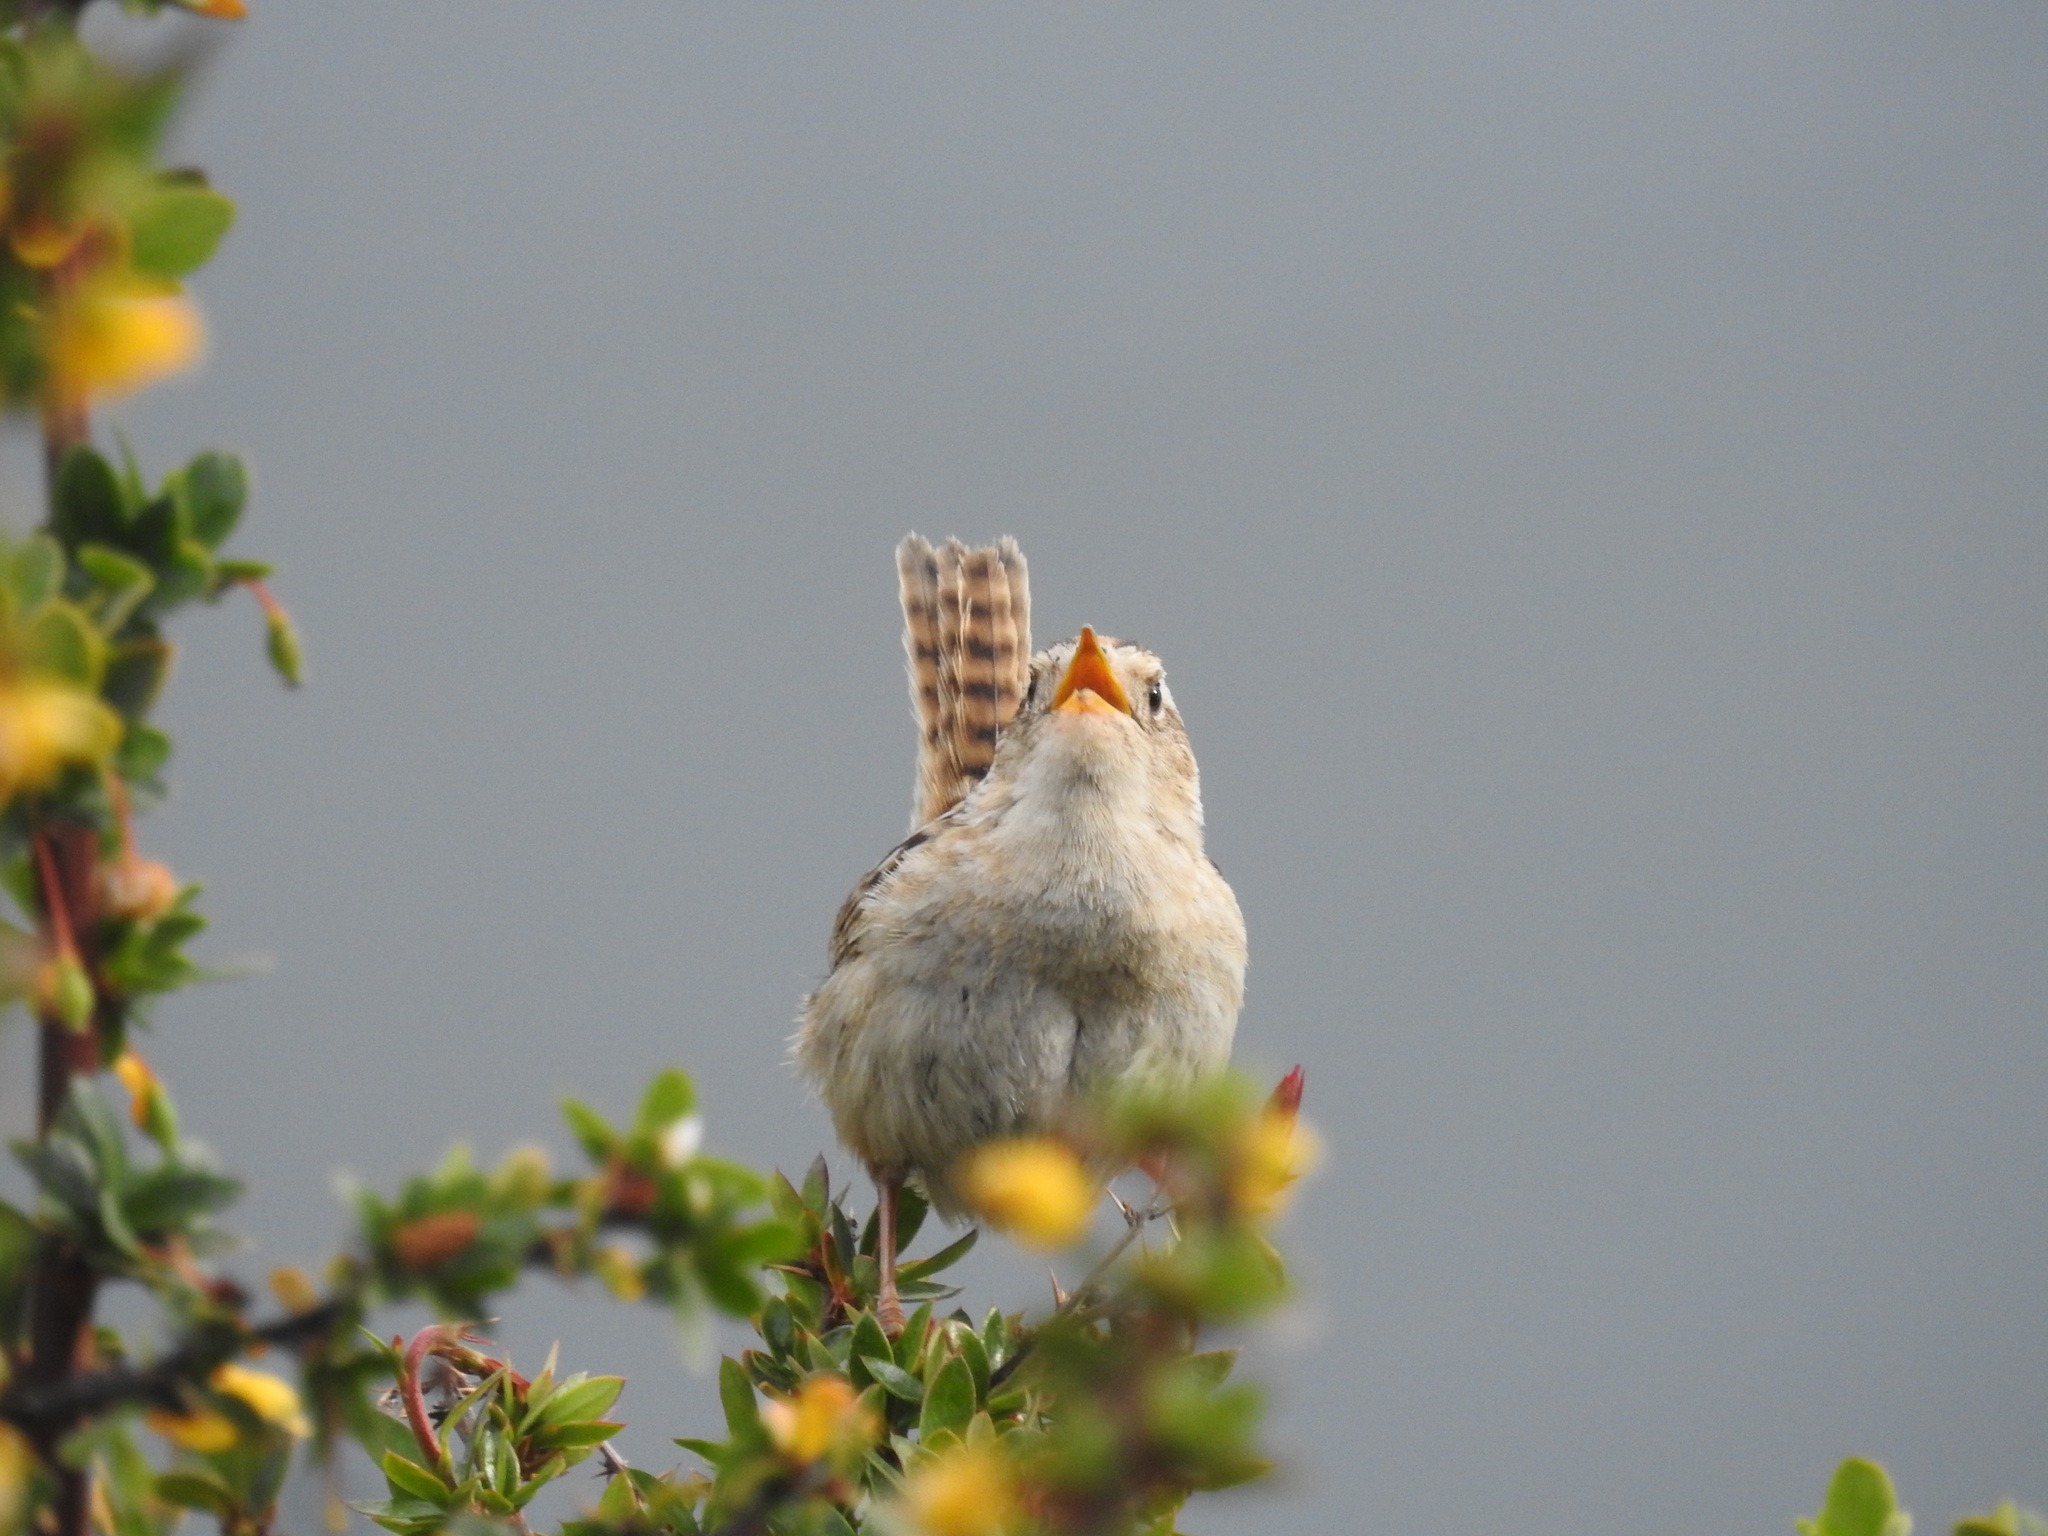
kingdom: Animalia
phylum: Chordata
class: Aves
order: Passeriformes
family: Troglodytidae
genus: Cistothorus
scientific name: Cistothorus platensis
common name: Sedge wren
